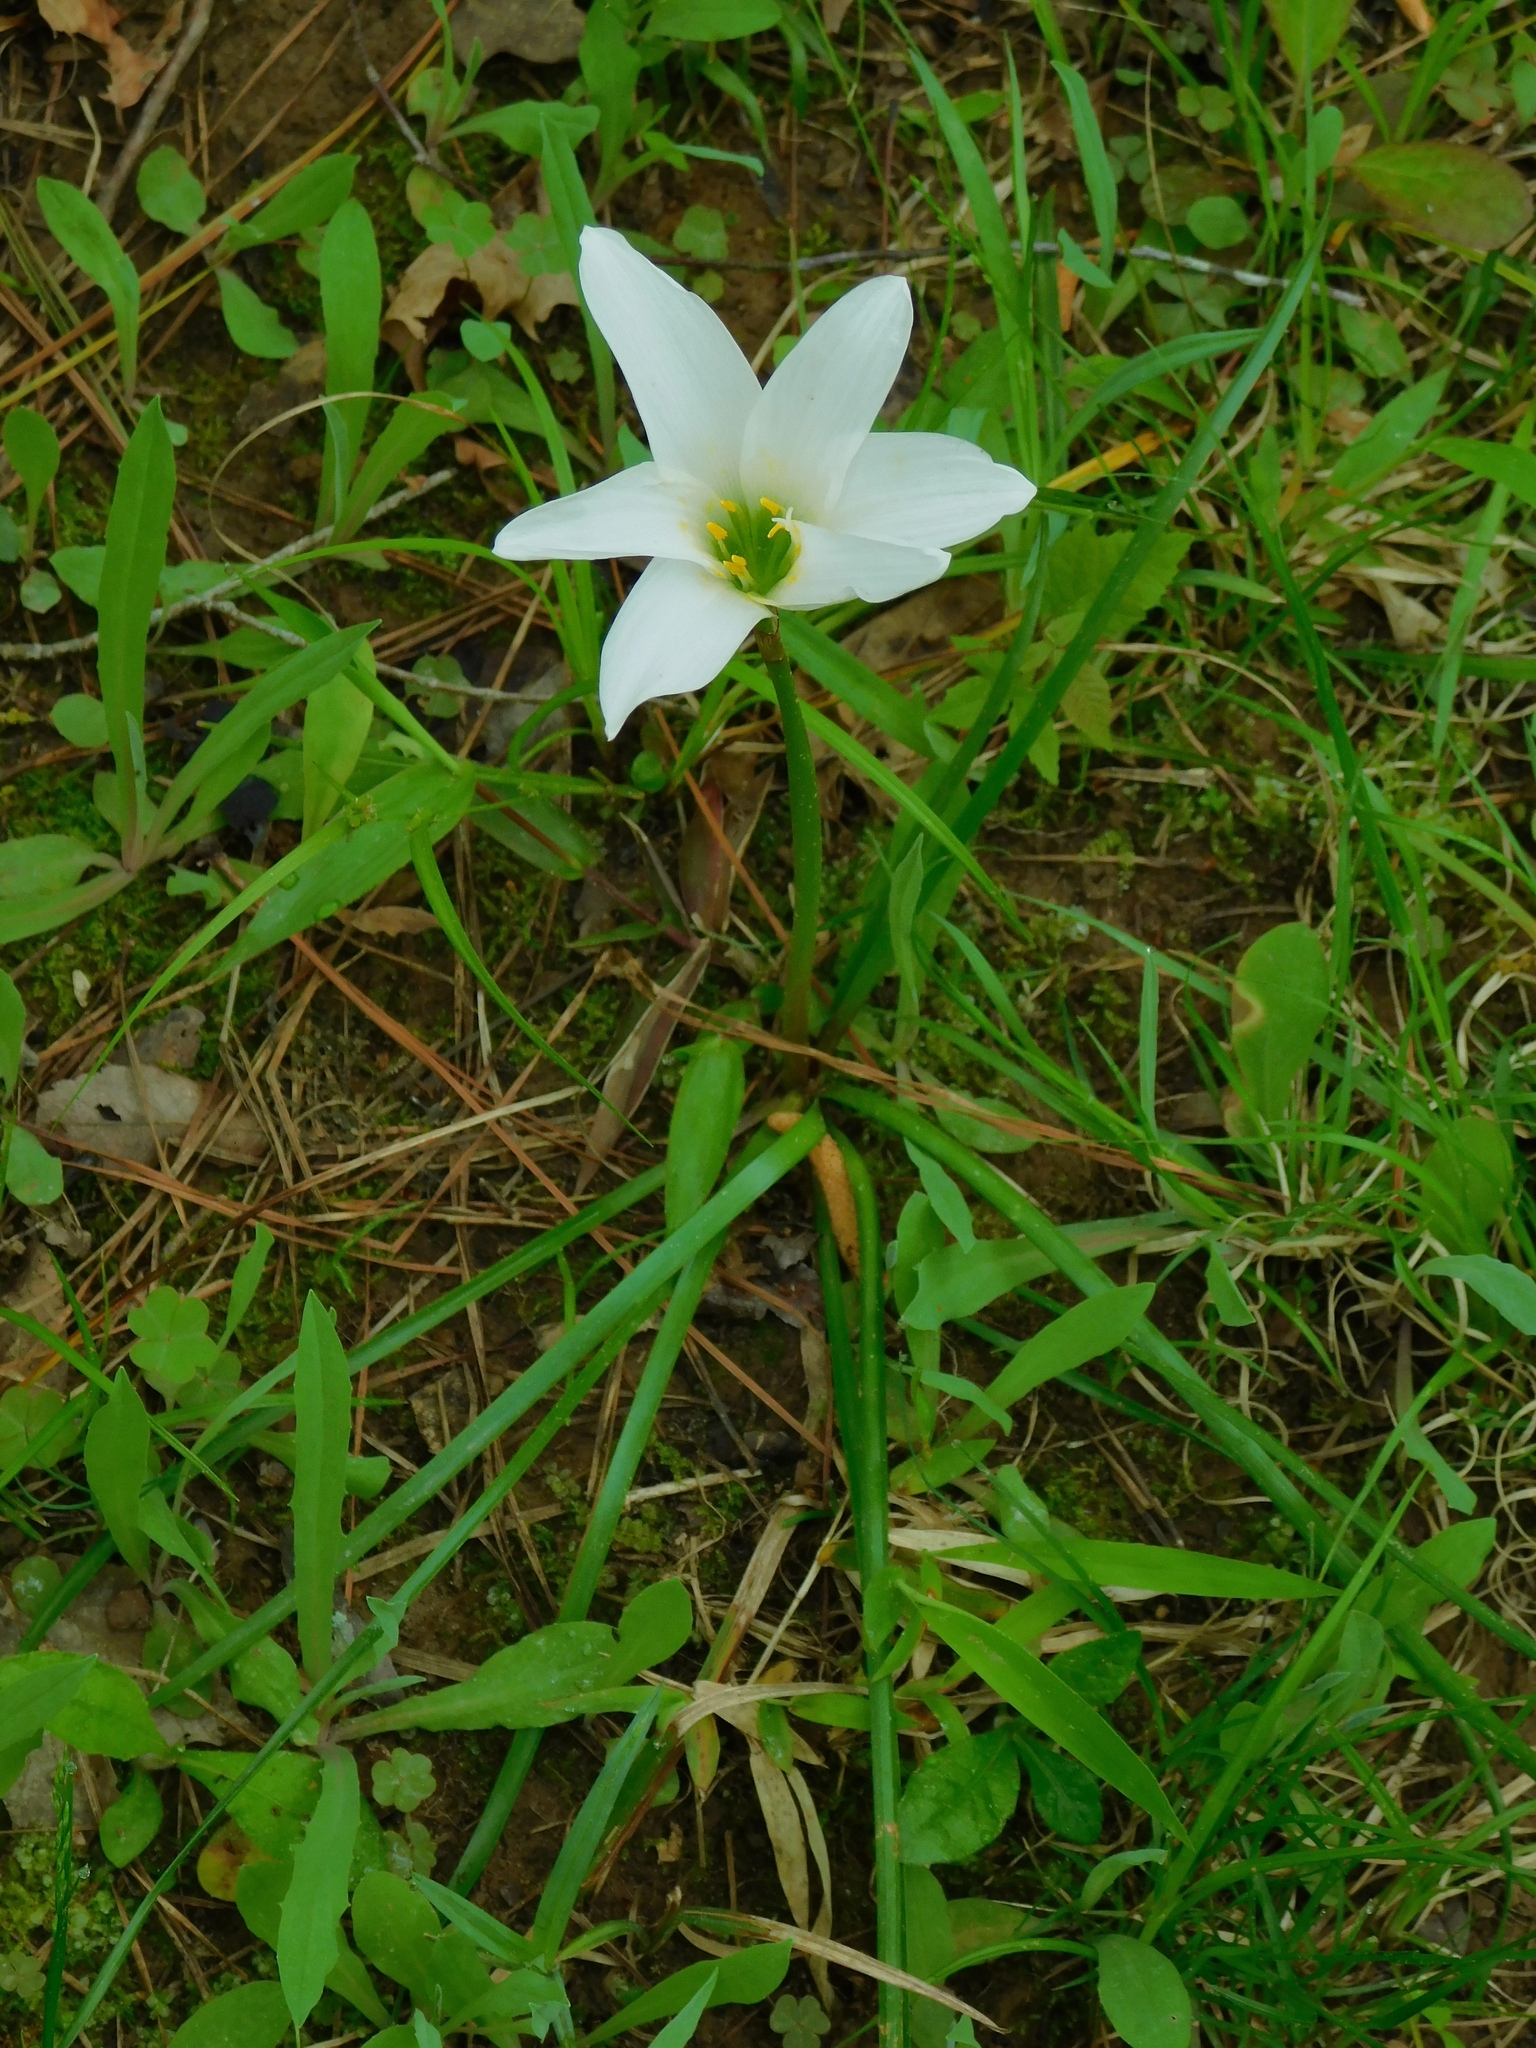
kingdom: Plantae
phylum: Tracheophyta
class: Liliopsida
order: Asparagales
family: Amaryllidaceae
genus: Zephyranthes
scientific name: Zephyranthes atamasco
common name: Atamasco lily
